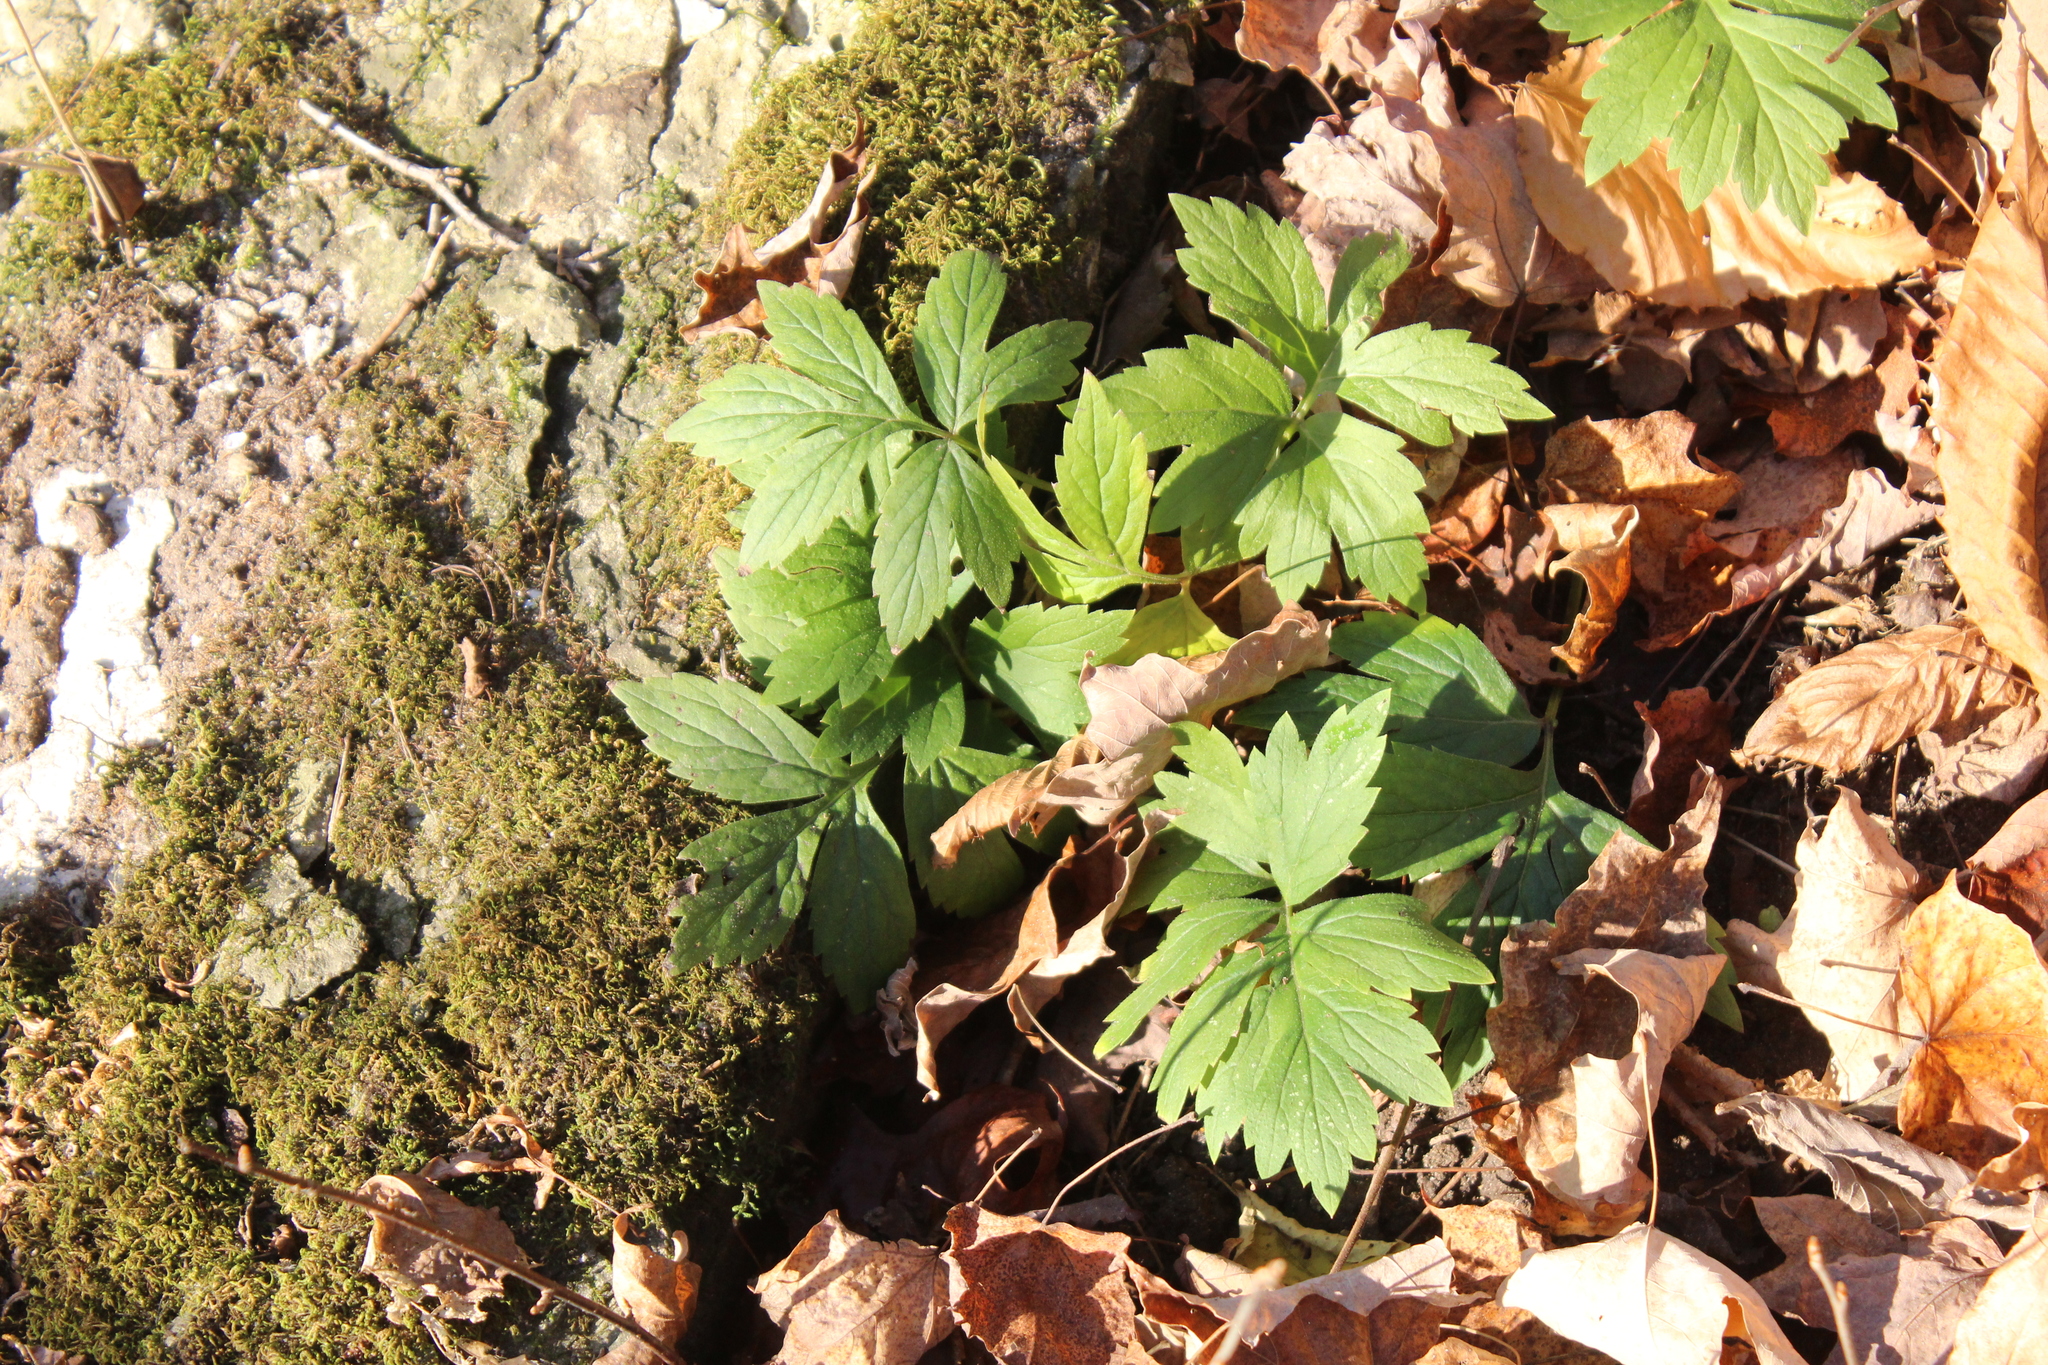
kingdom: Plantae
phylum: Tracheophyta
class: Magnoliopsida
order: Boraginales
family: Hydrophyllaceae
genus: Hydrophyllum
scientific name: Hydrophyllum virginianum
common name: Virginia waterleaf
